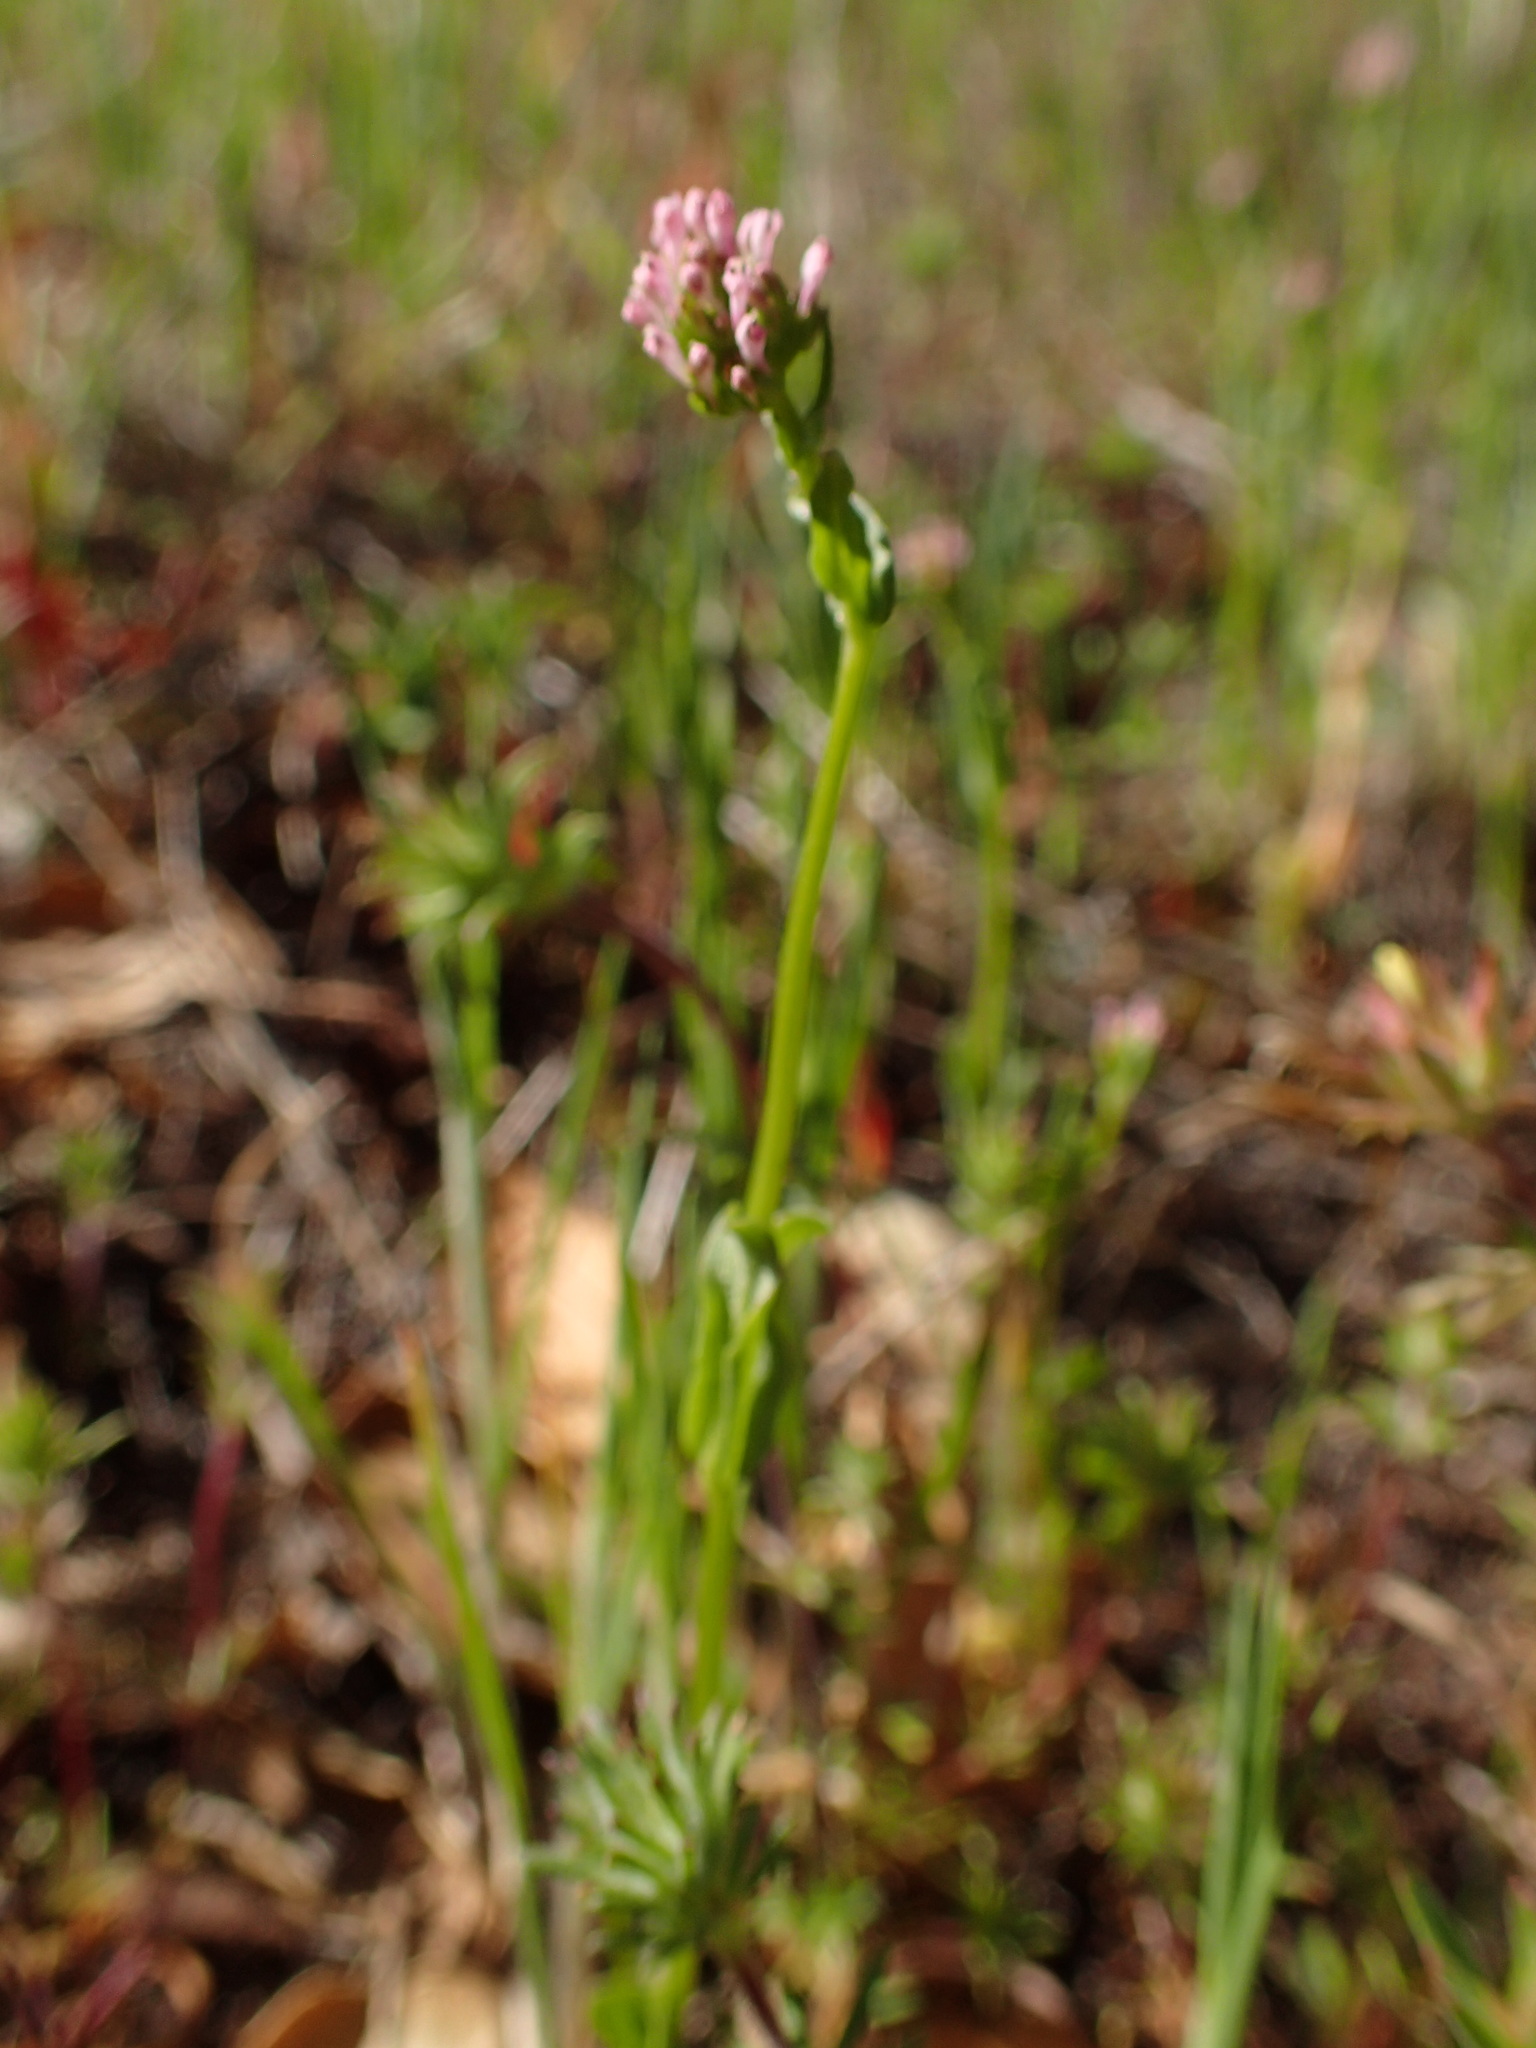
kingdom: Plantae
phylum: Tracheophyta
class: Magnoliopsida
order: Dipsacales
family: Caprifoliaceae
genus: Plectritis
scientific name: Plectritis ciliosa
